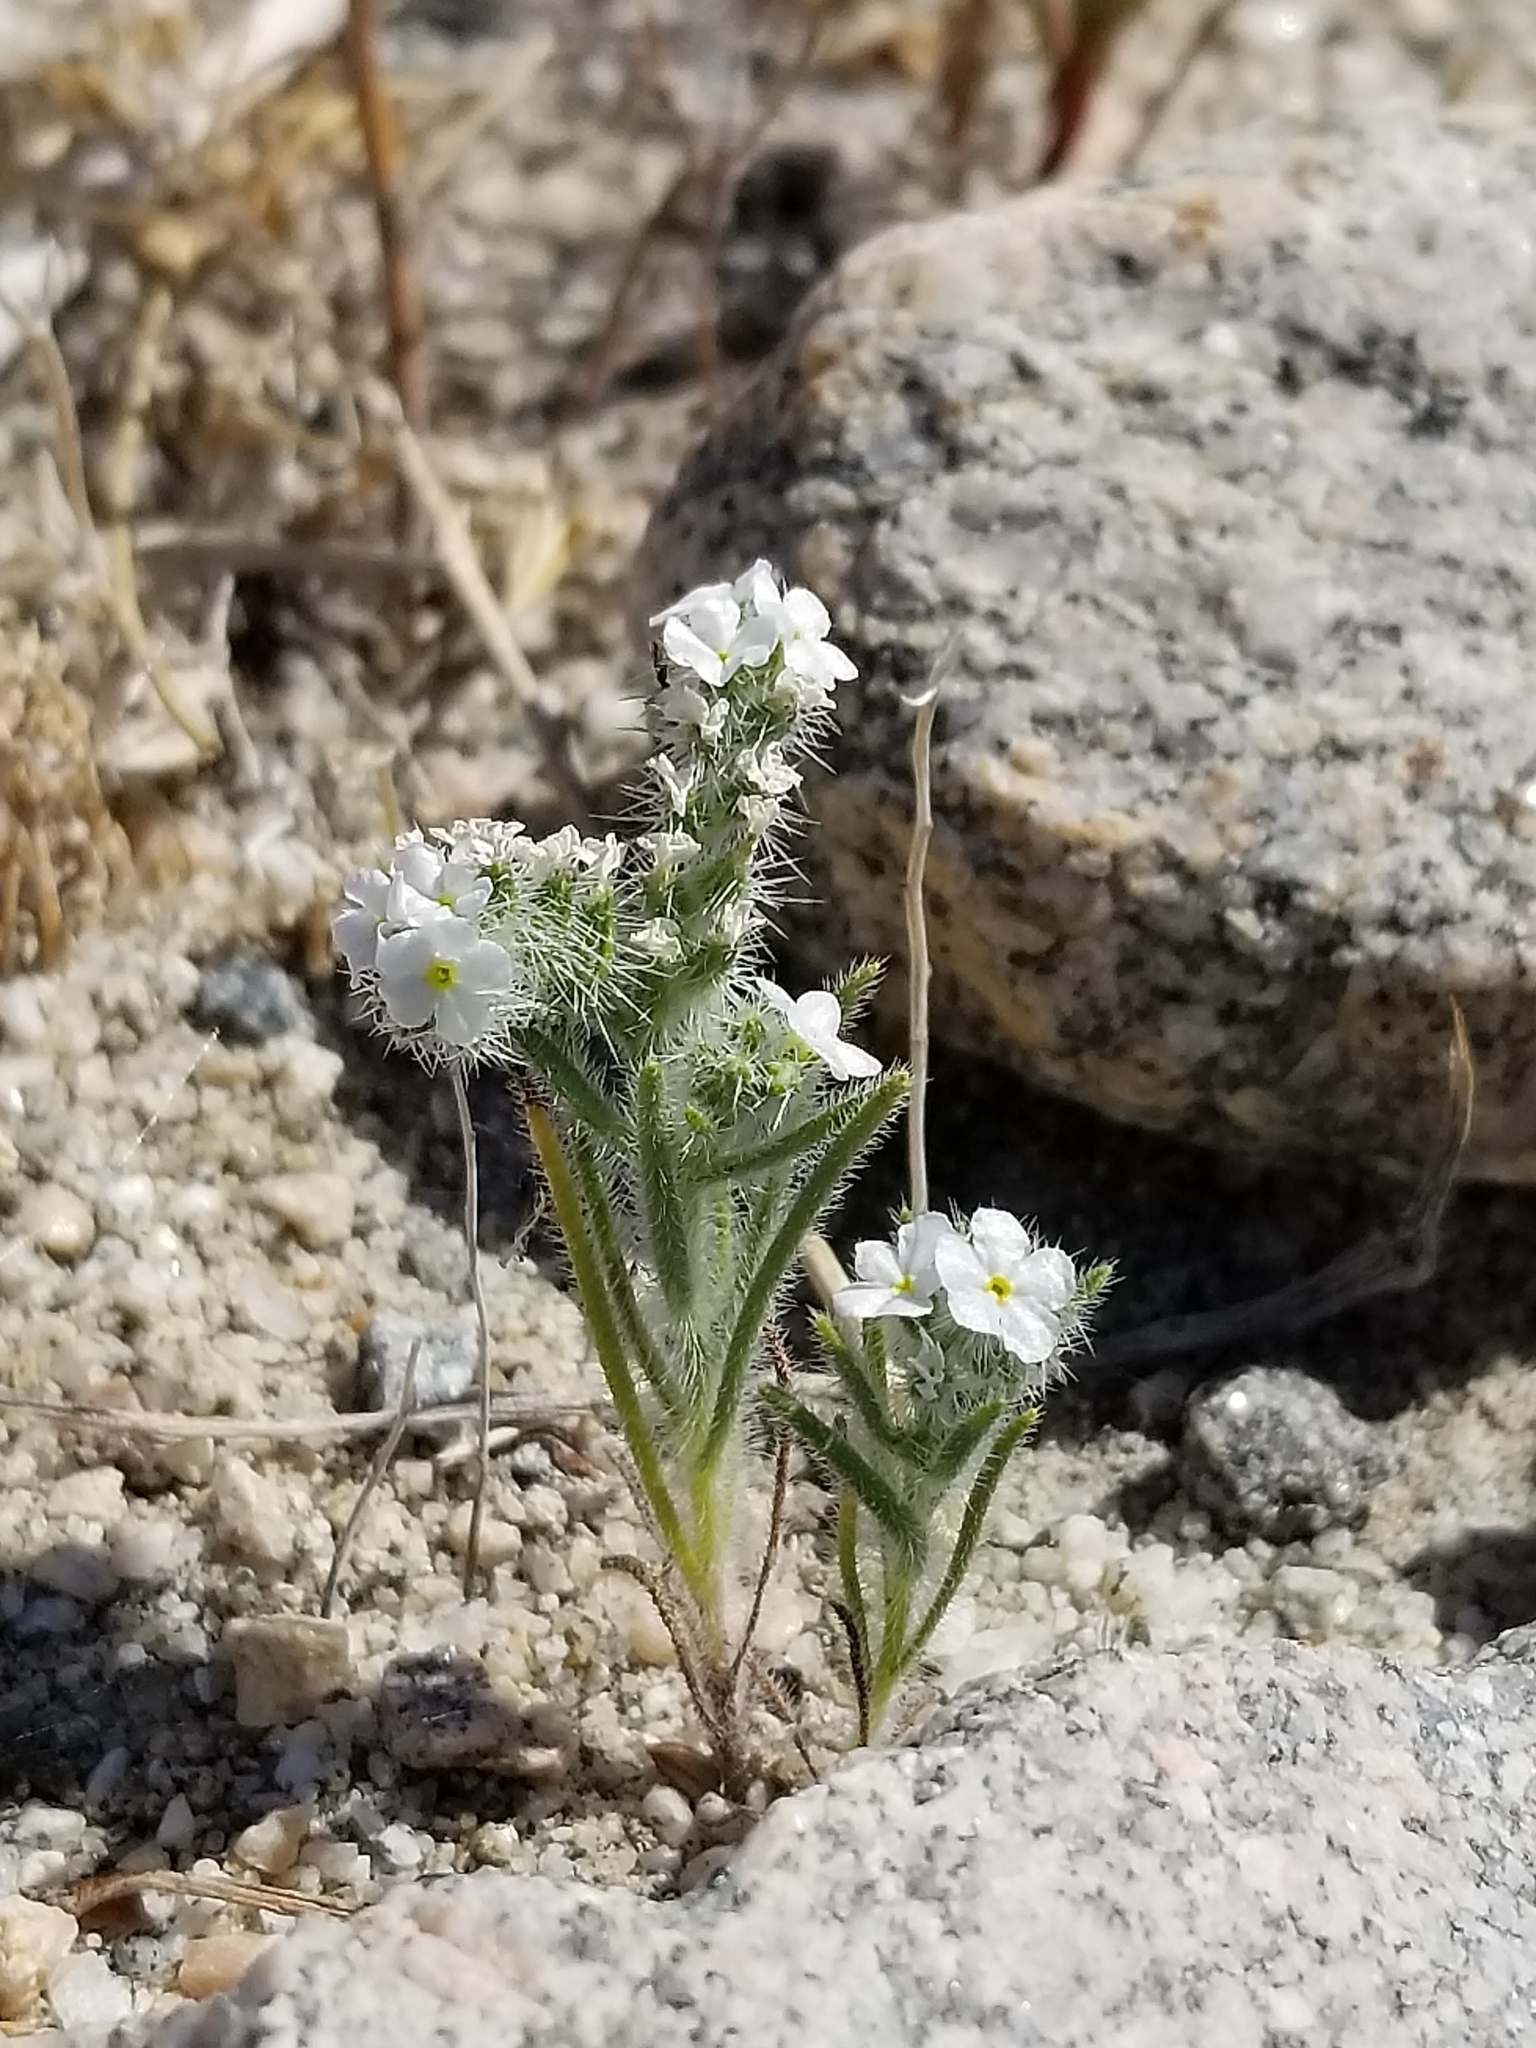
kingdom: Plantae
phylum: Tracheophyta
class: Magnoliopsida
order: Boraginales
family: Boraginaceae
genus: Johnstonella
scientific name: Johnstonella angustifolia
